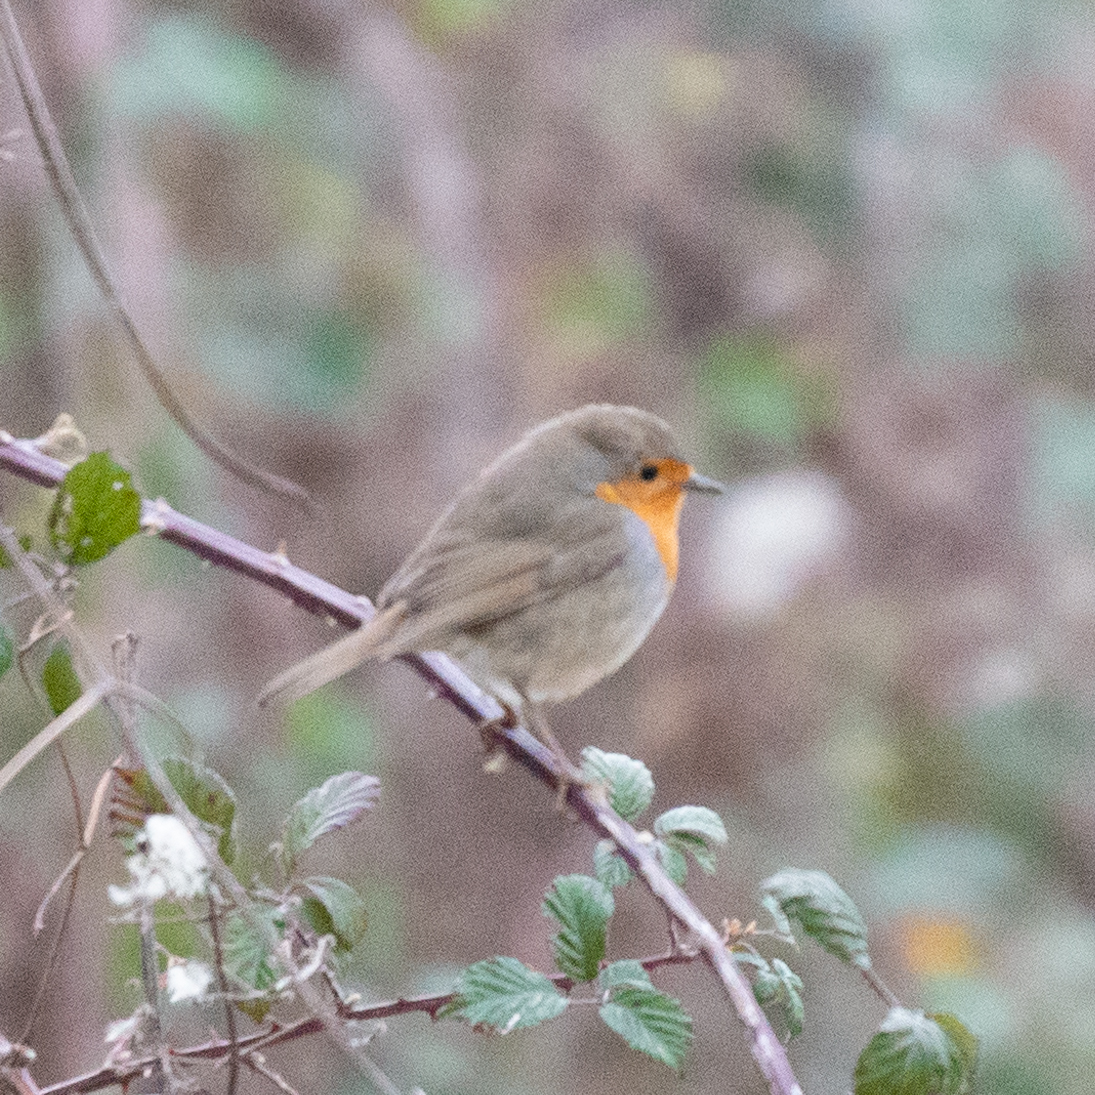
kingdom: Animalia
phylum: Chordata
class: Aves
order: Passeriformes
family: Muscicapidae
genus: Erithacus
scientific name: Erithacus rubecula
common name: European robin
